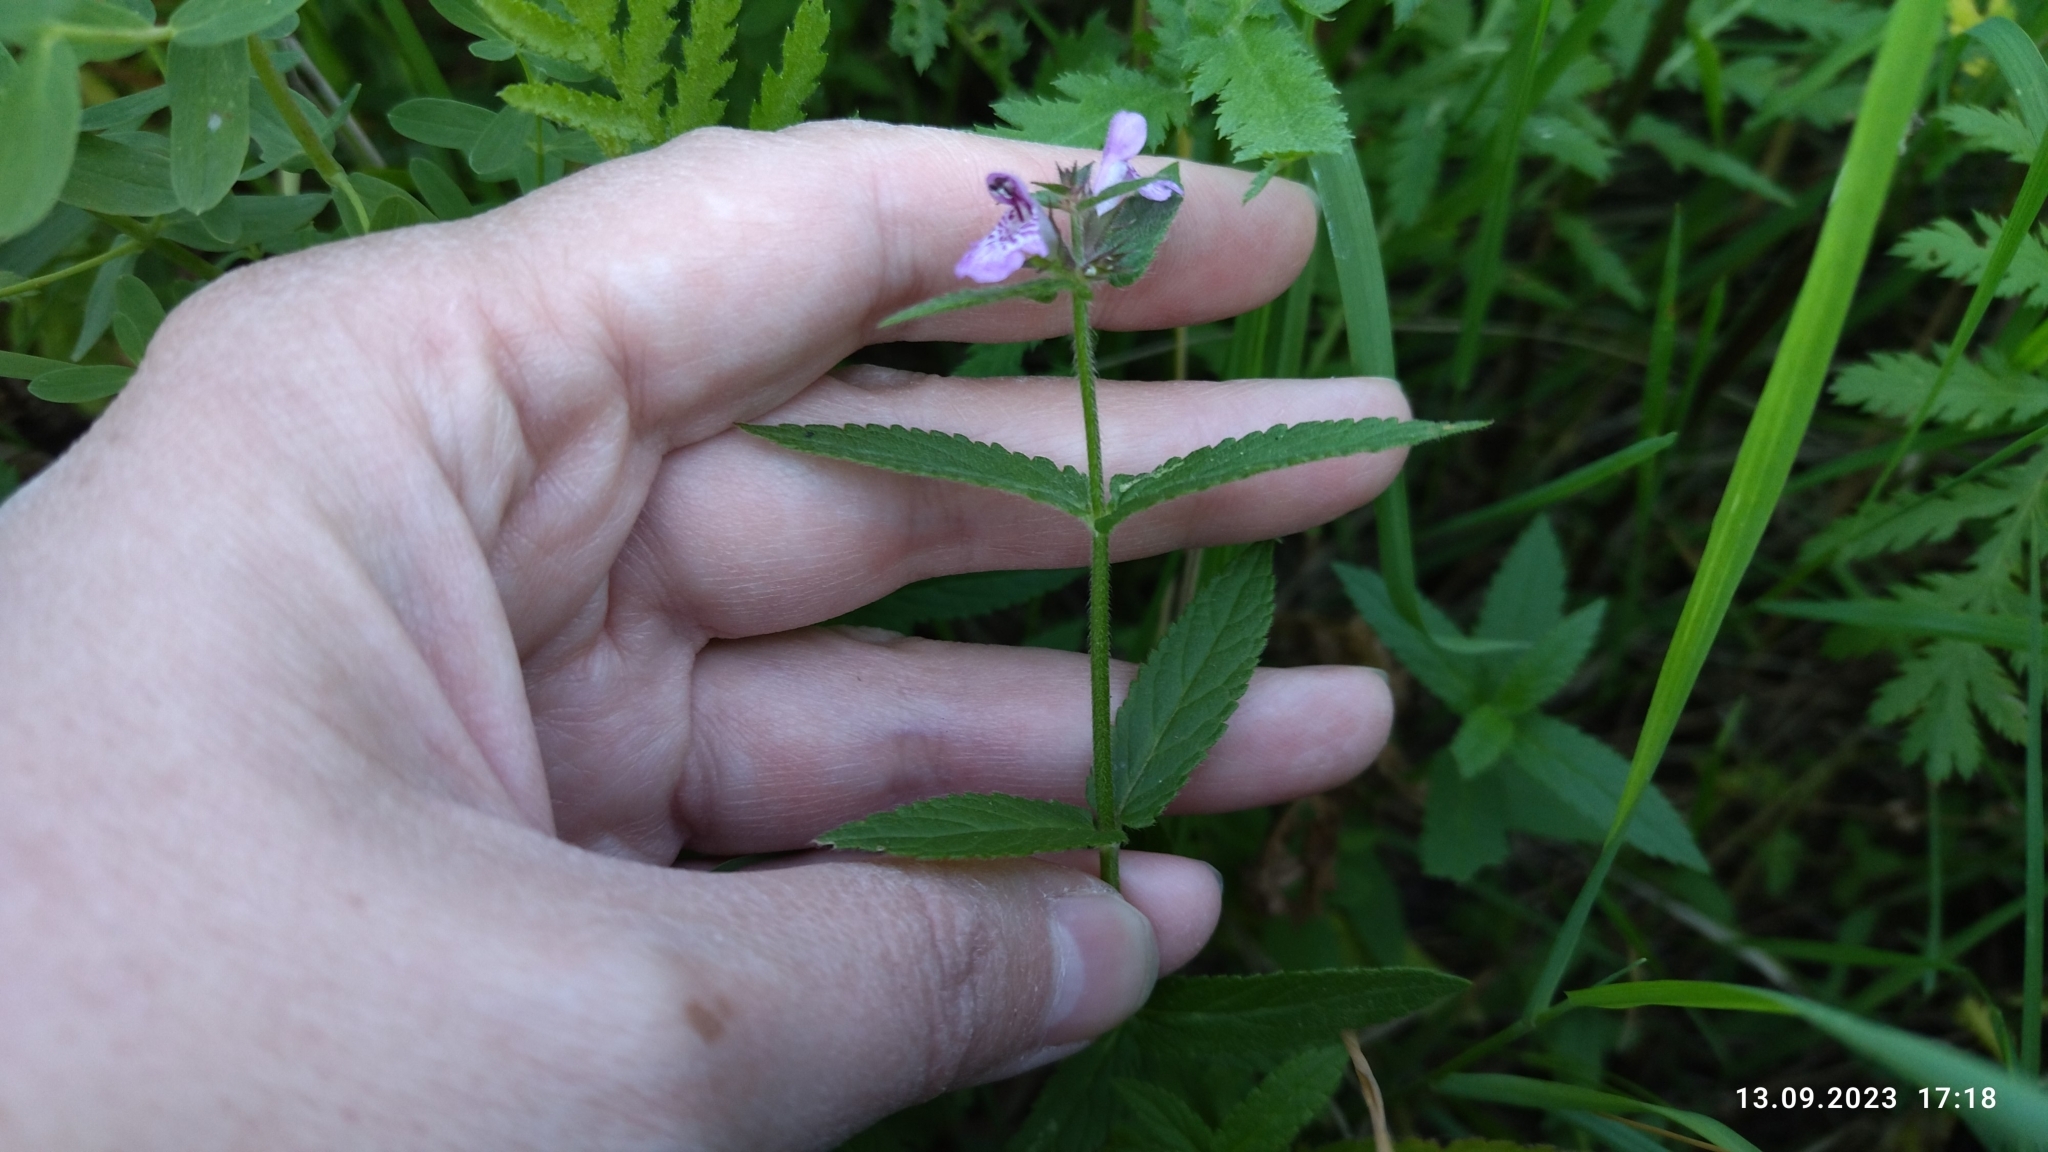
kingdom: Plantae
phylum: Tracheophyta
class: Magnoliopsida
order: Lamiales
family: Lamiaceae
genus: Stachys
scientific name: Stachys palustris
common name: Marsh woundwort
